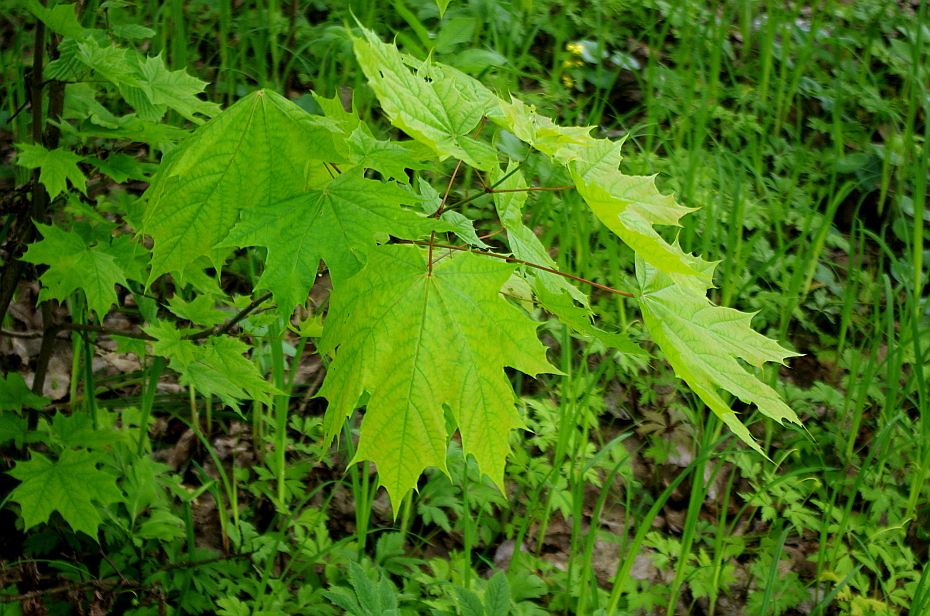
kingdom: Plantae
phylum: Tracheophyta
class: Magnoliopsida
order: Sapindales
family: Sapindaceae
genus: Acer
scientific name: Acer platanoides
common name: Norway maple
